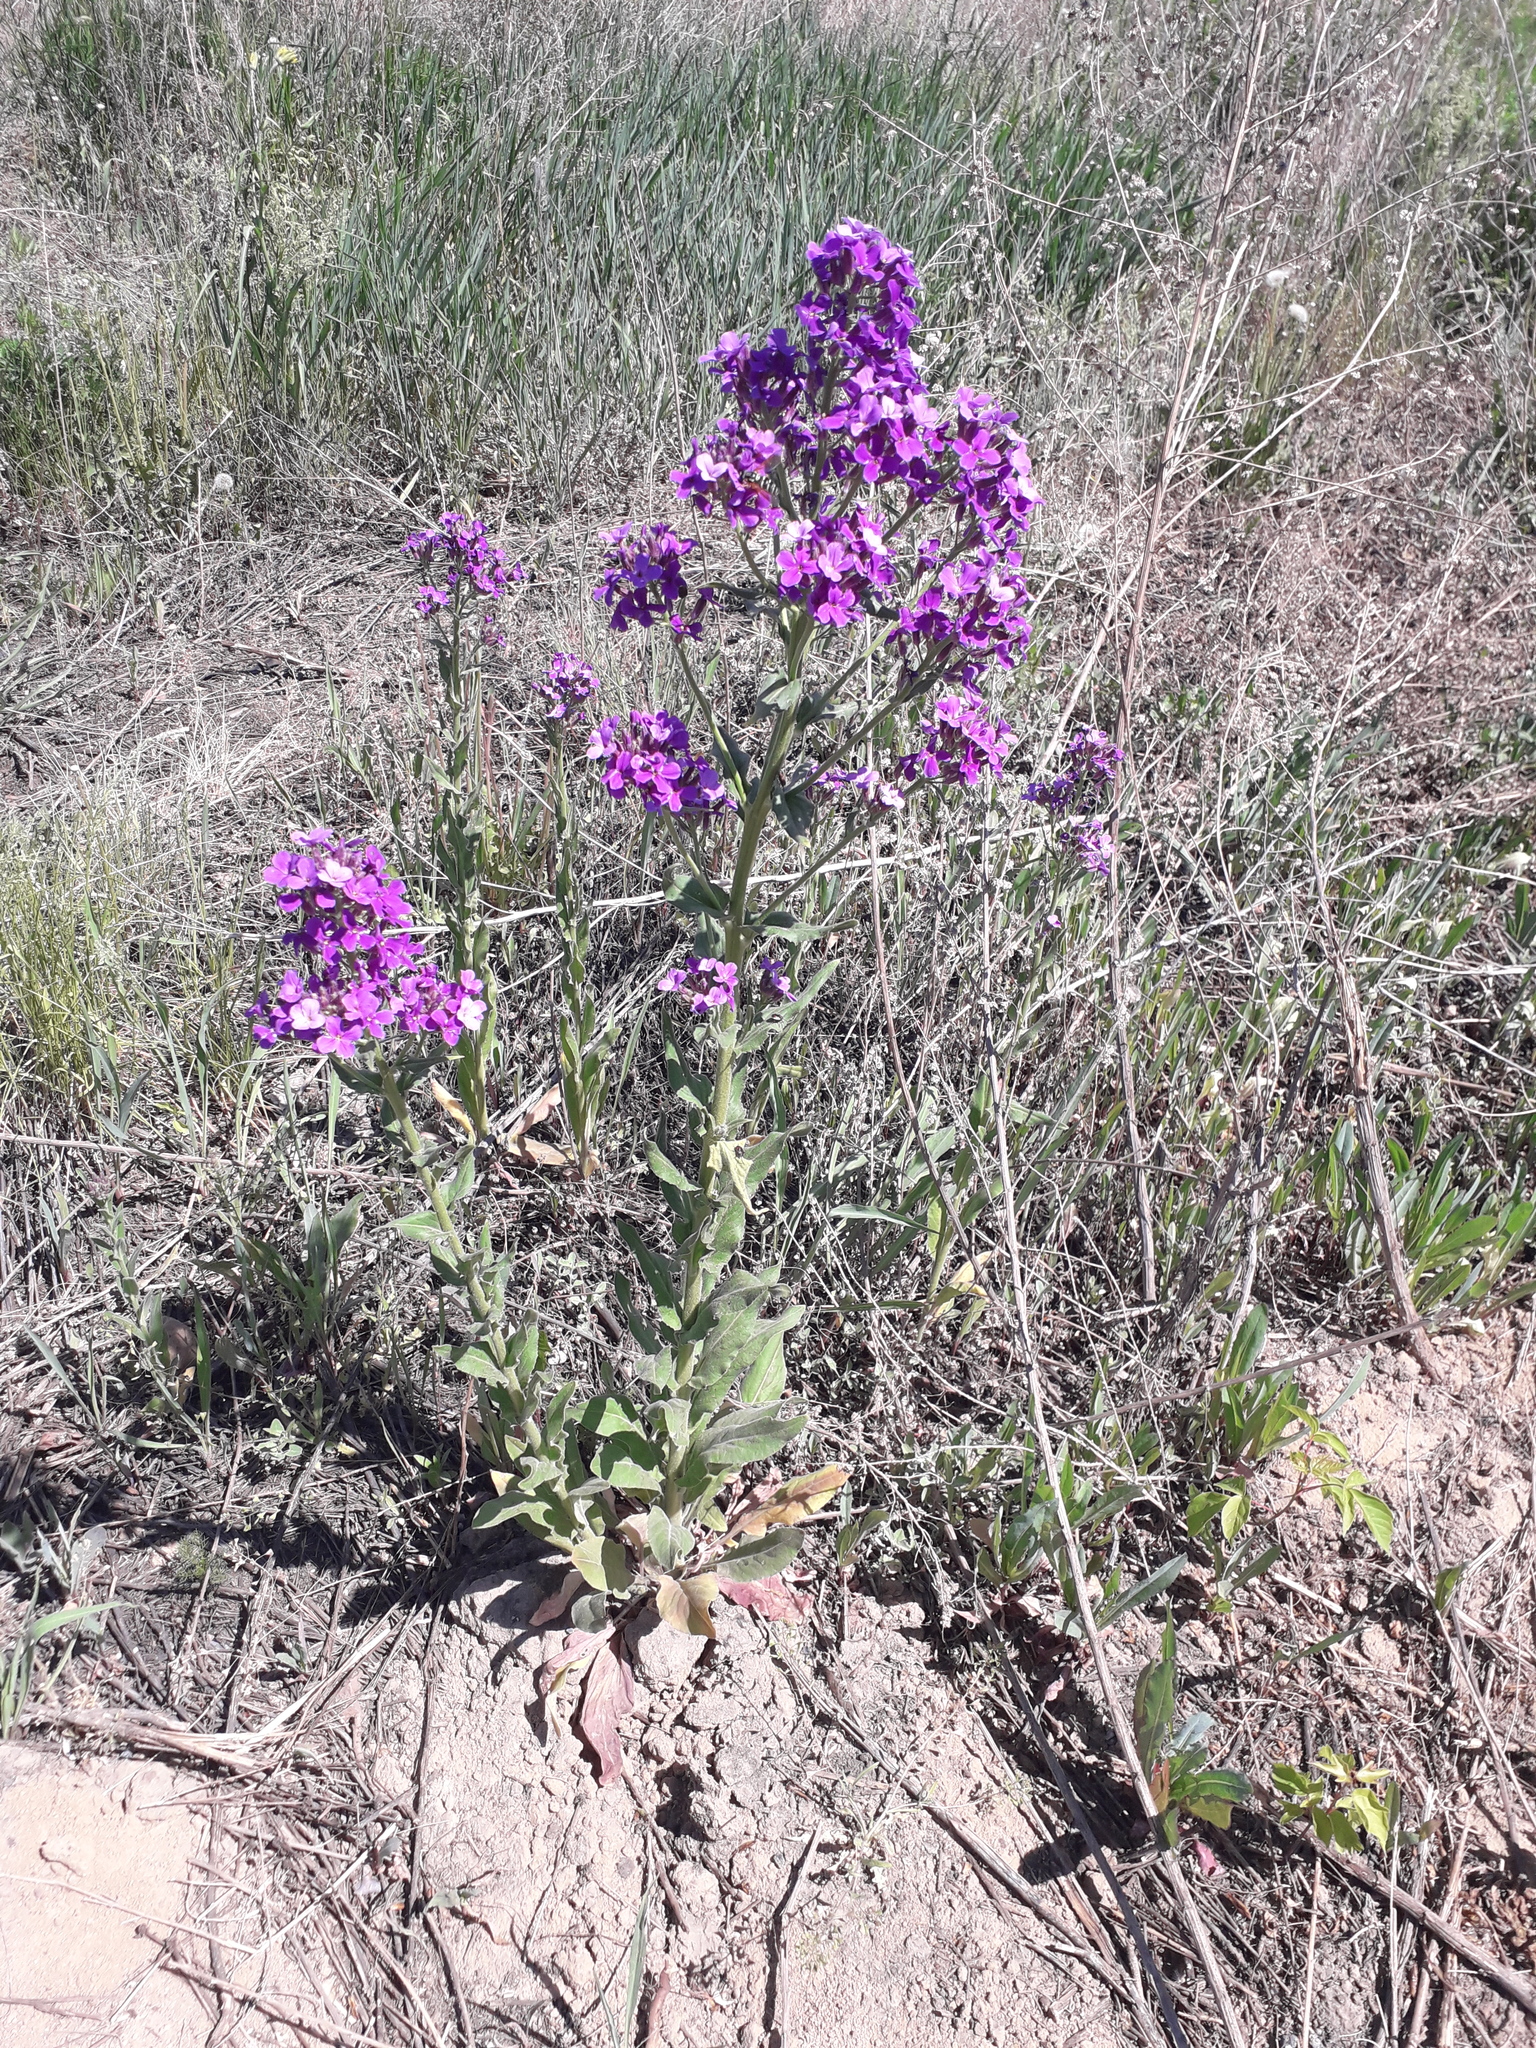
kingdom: Plantae
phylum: Tracheophyta
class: Magnoliopsida
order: Brassicales
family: Brassicaceae
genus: Hesperis
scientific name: Hesperis sibirica
